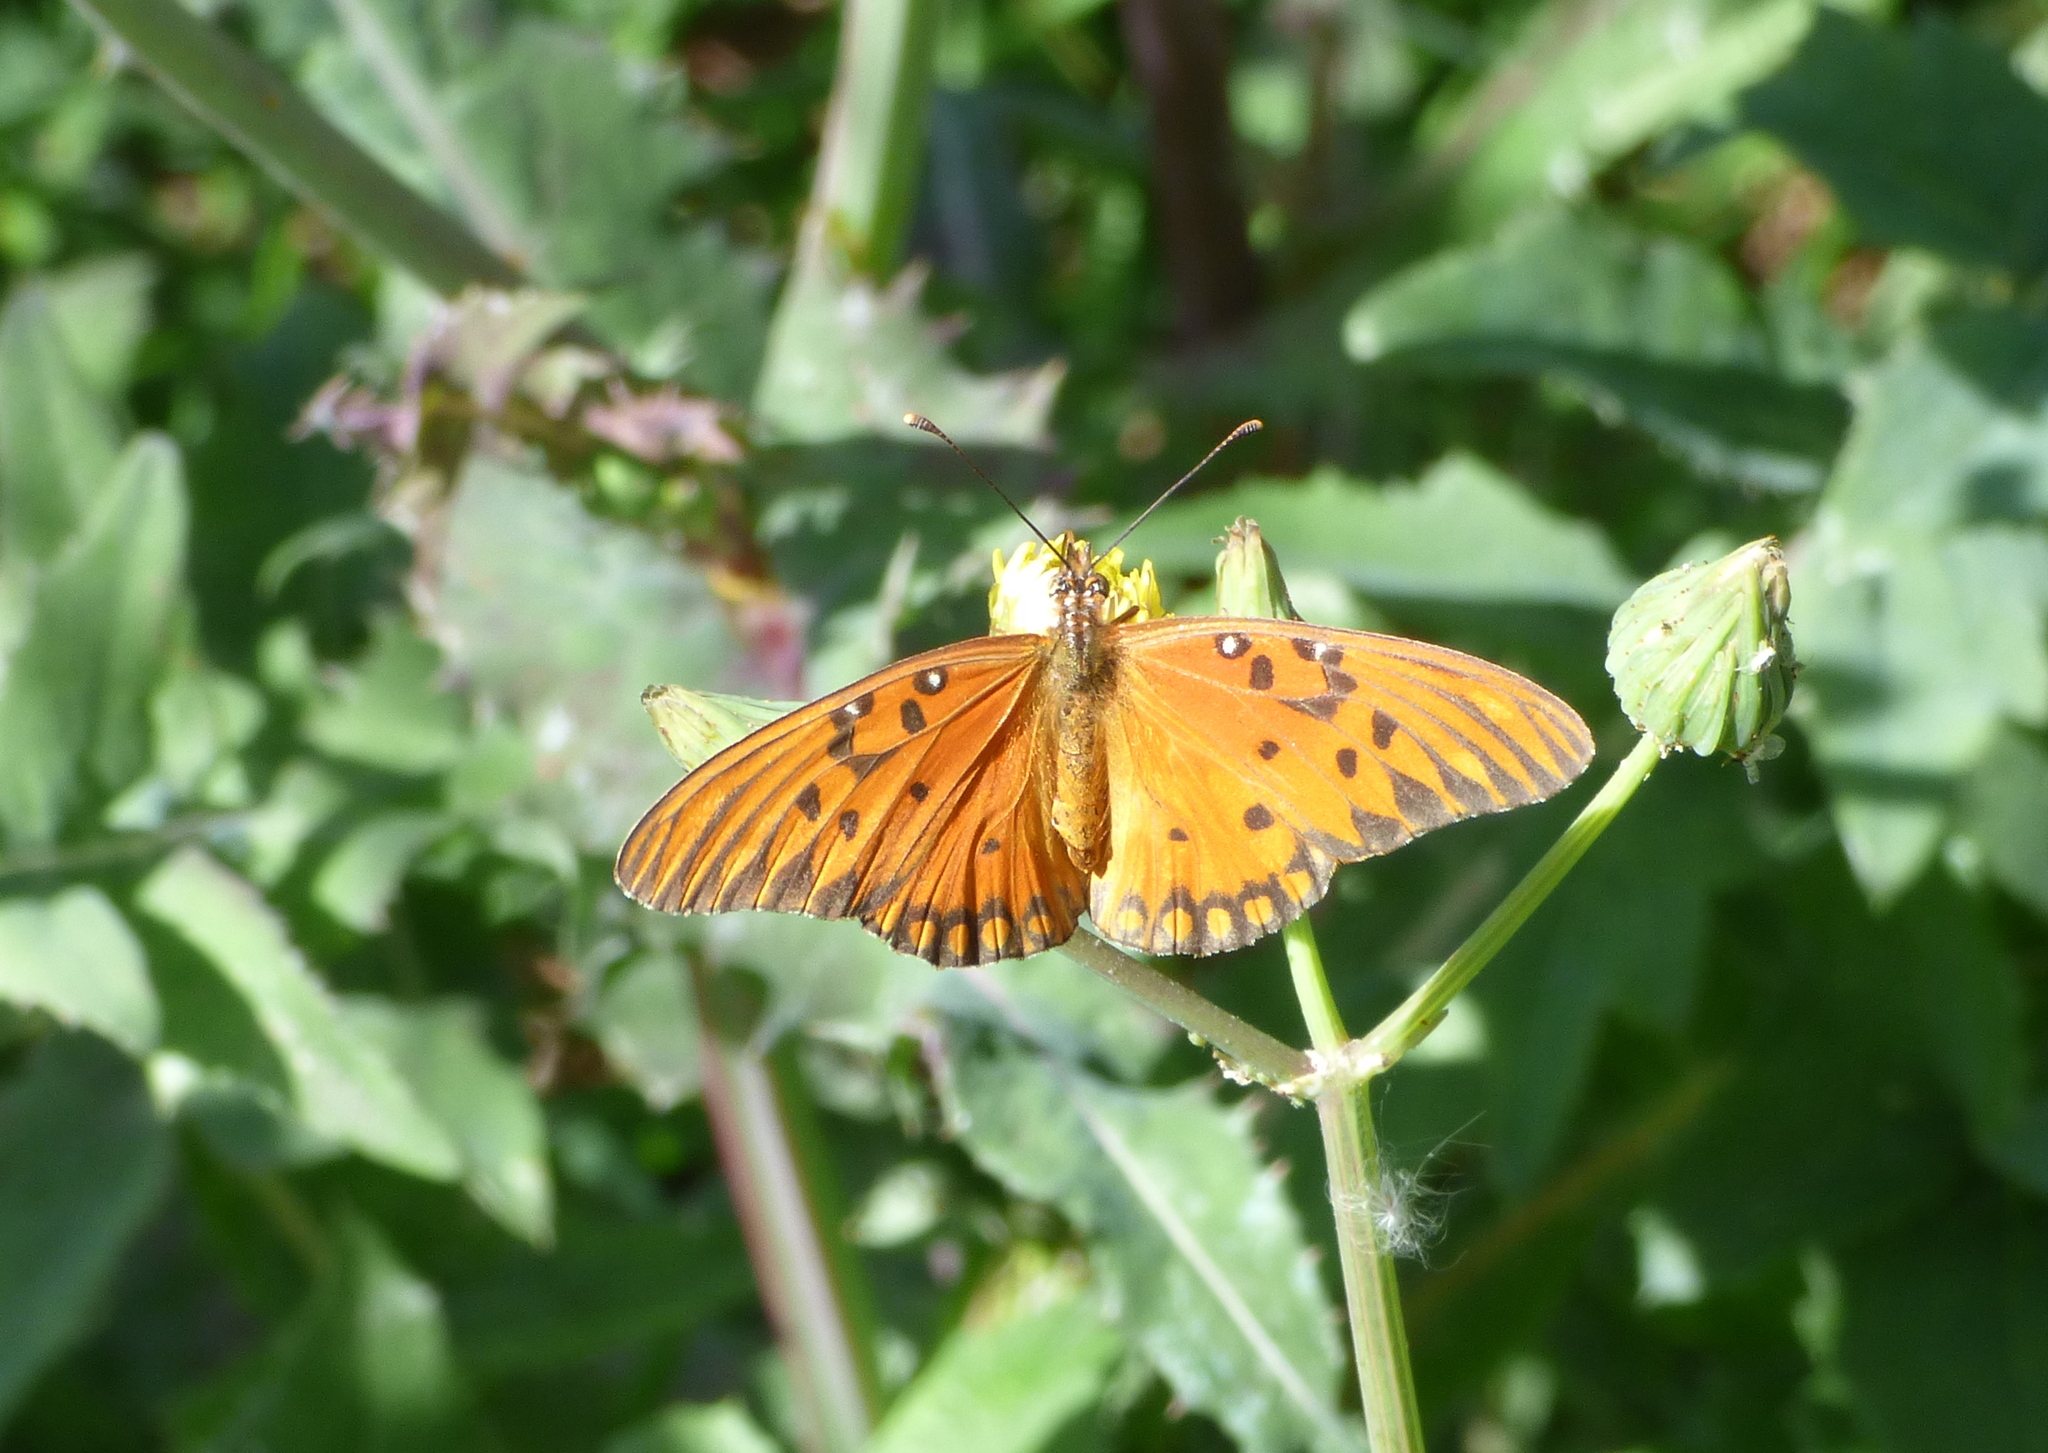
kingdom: Animalia
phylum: Arthropoda
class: Insecta
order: Lepidoptera
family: Nymphalidae
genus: Dione
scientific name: Dione vanillae
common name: Gulf fritillary
